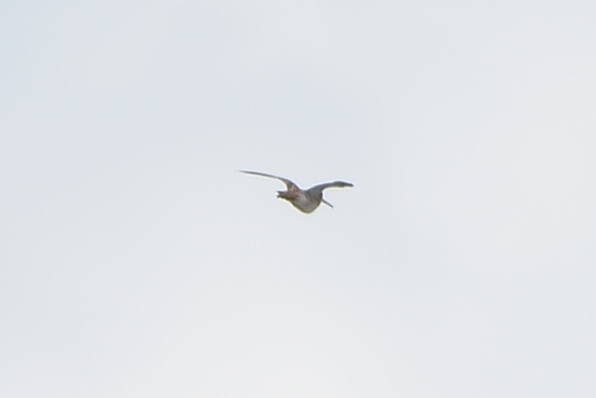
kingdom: Animalia
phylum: Chordata
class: Aves
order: Charadriiformes
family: Scolopacidae
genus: Gallinago
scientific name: Gallinago gallinago
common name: Common snipe
